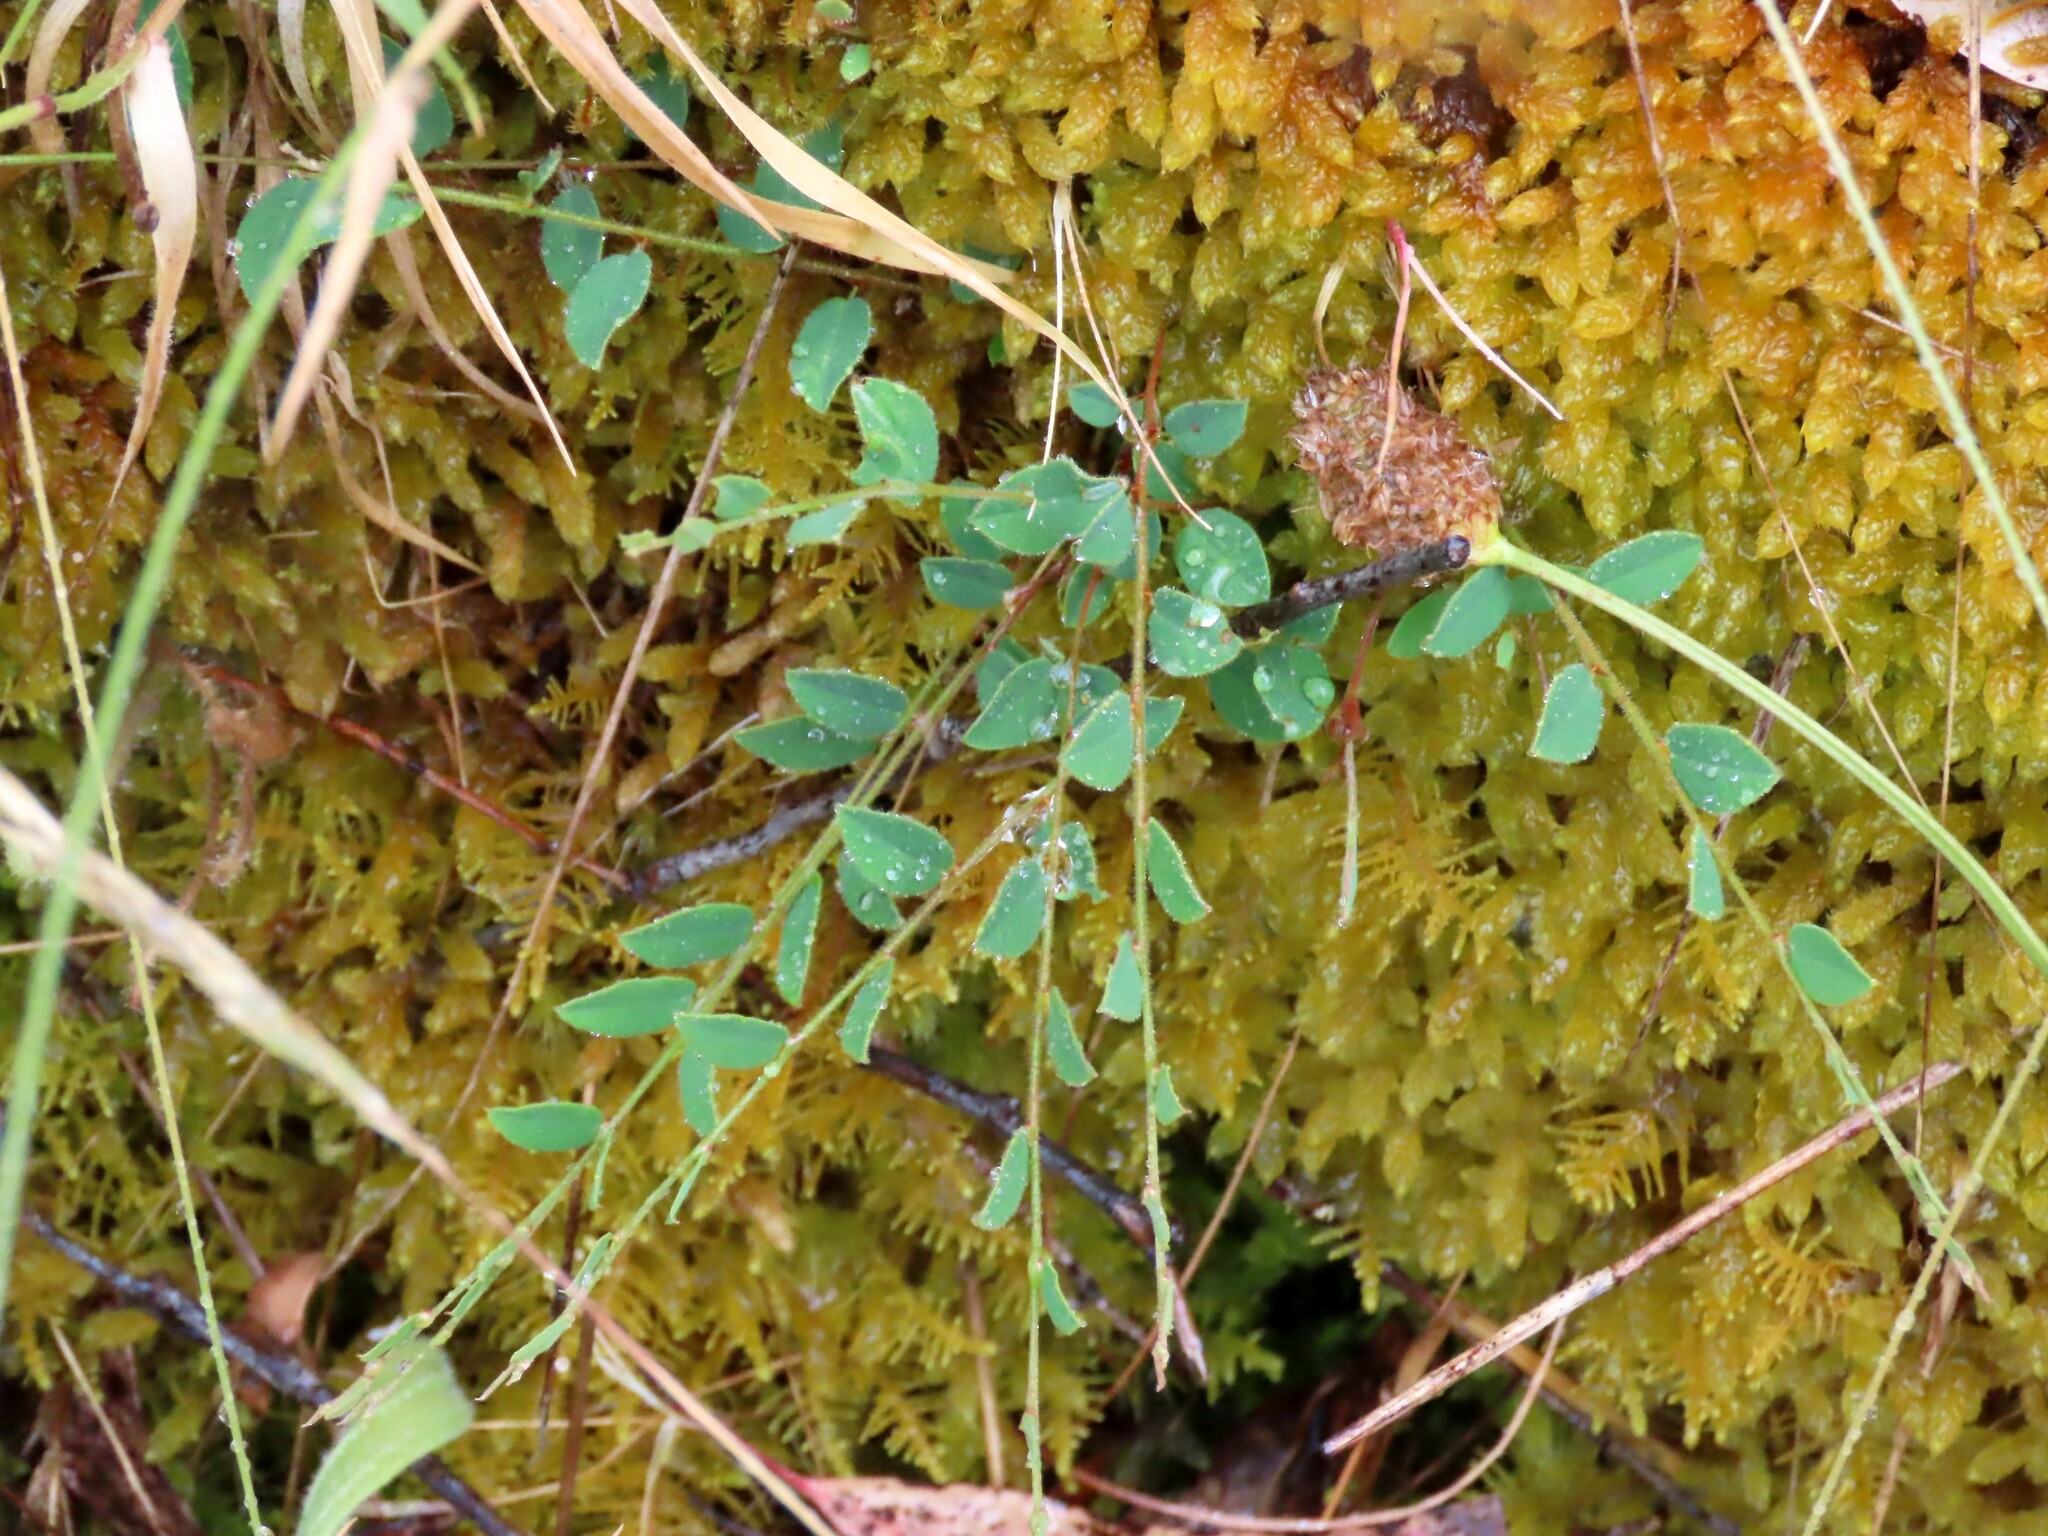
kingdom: Plantae
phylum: Tracheophyta
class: Magnoliopsida
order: Fabales
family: Fabaceae
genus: Bossiaea
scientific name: Bossiaea prostrata
